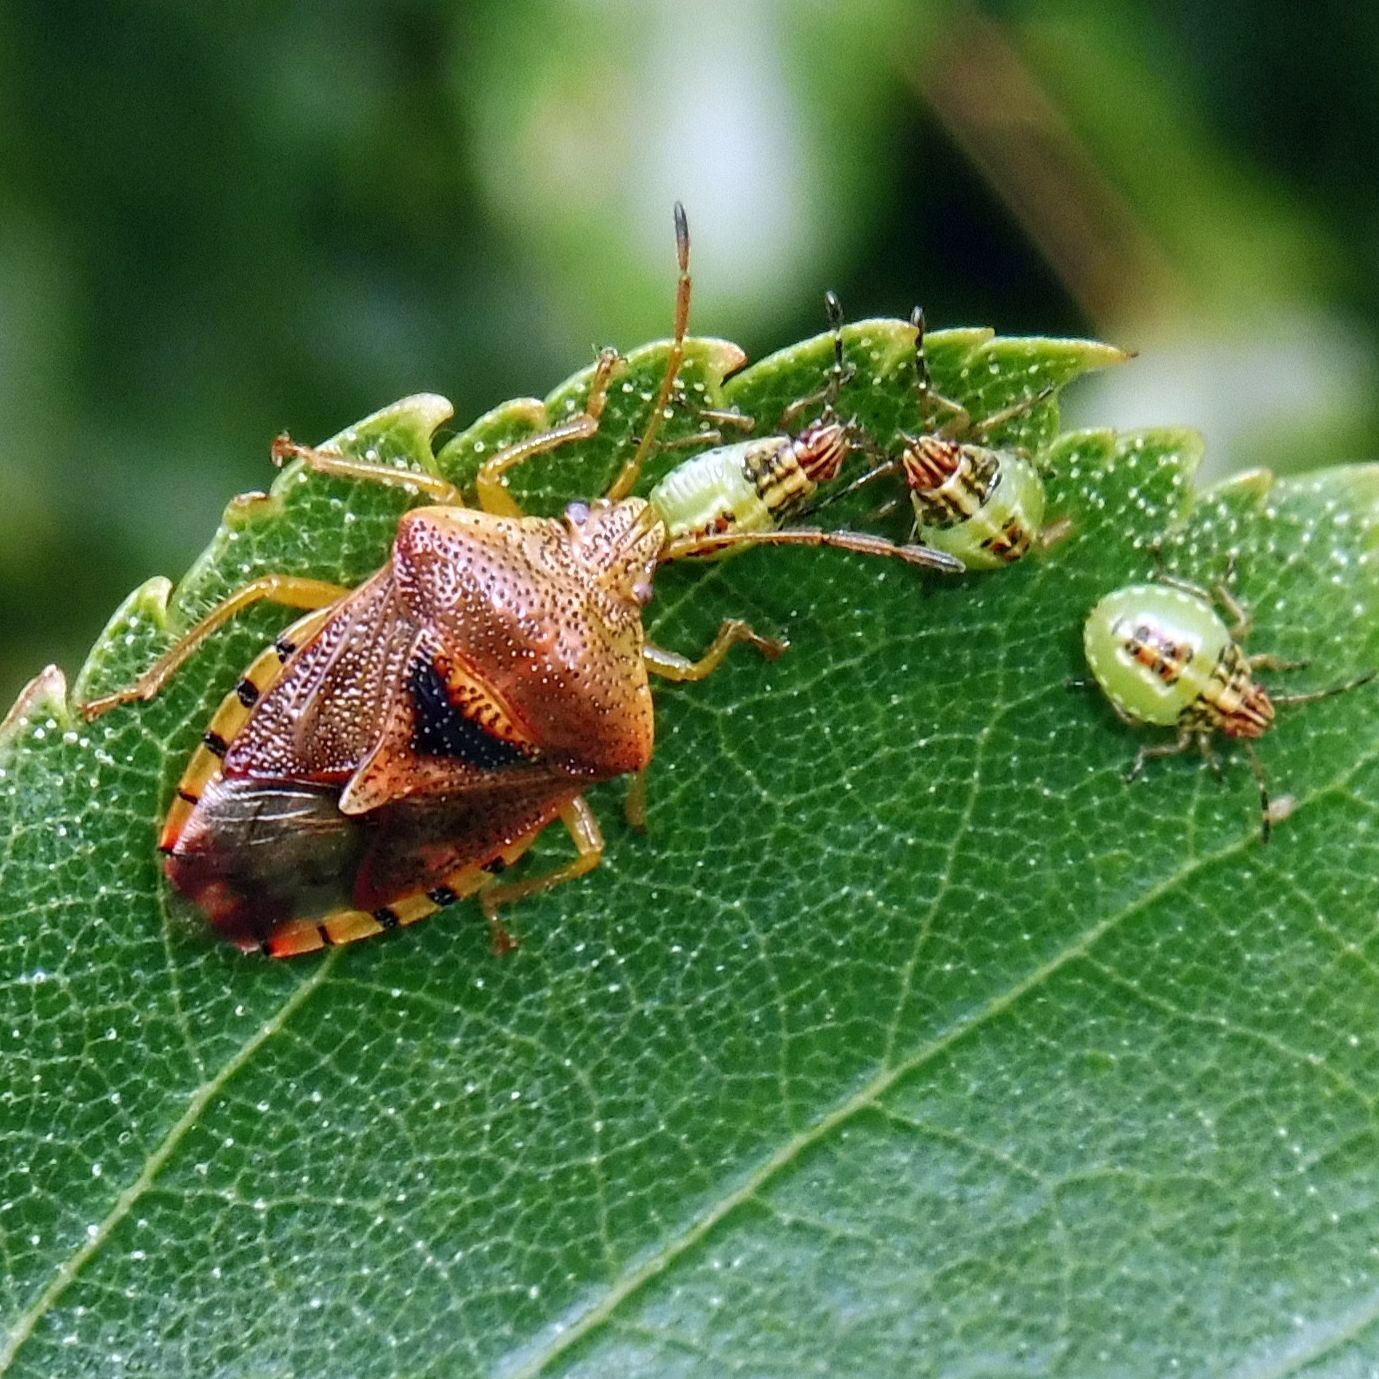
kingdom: Animalia
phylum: Arthropoda
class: Insecta
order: Hemiptera
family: Acanthosomatidae
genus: Elasmucha
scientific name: Elasmucha grisea
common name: Parent bug
